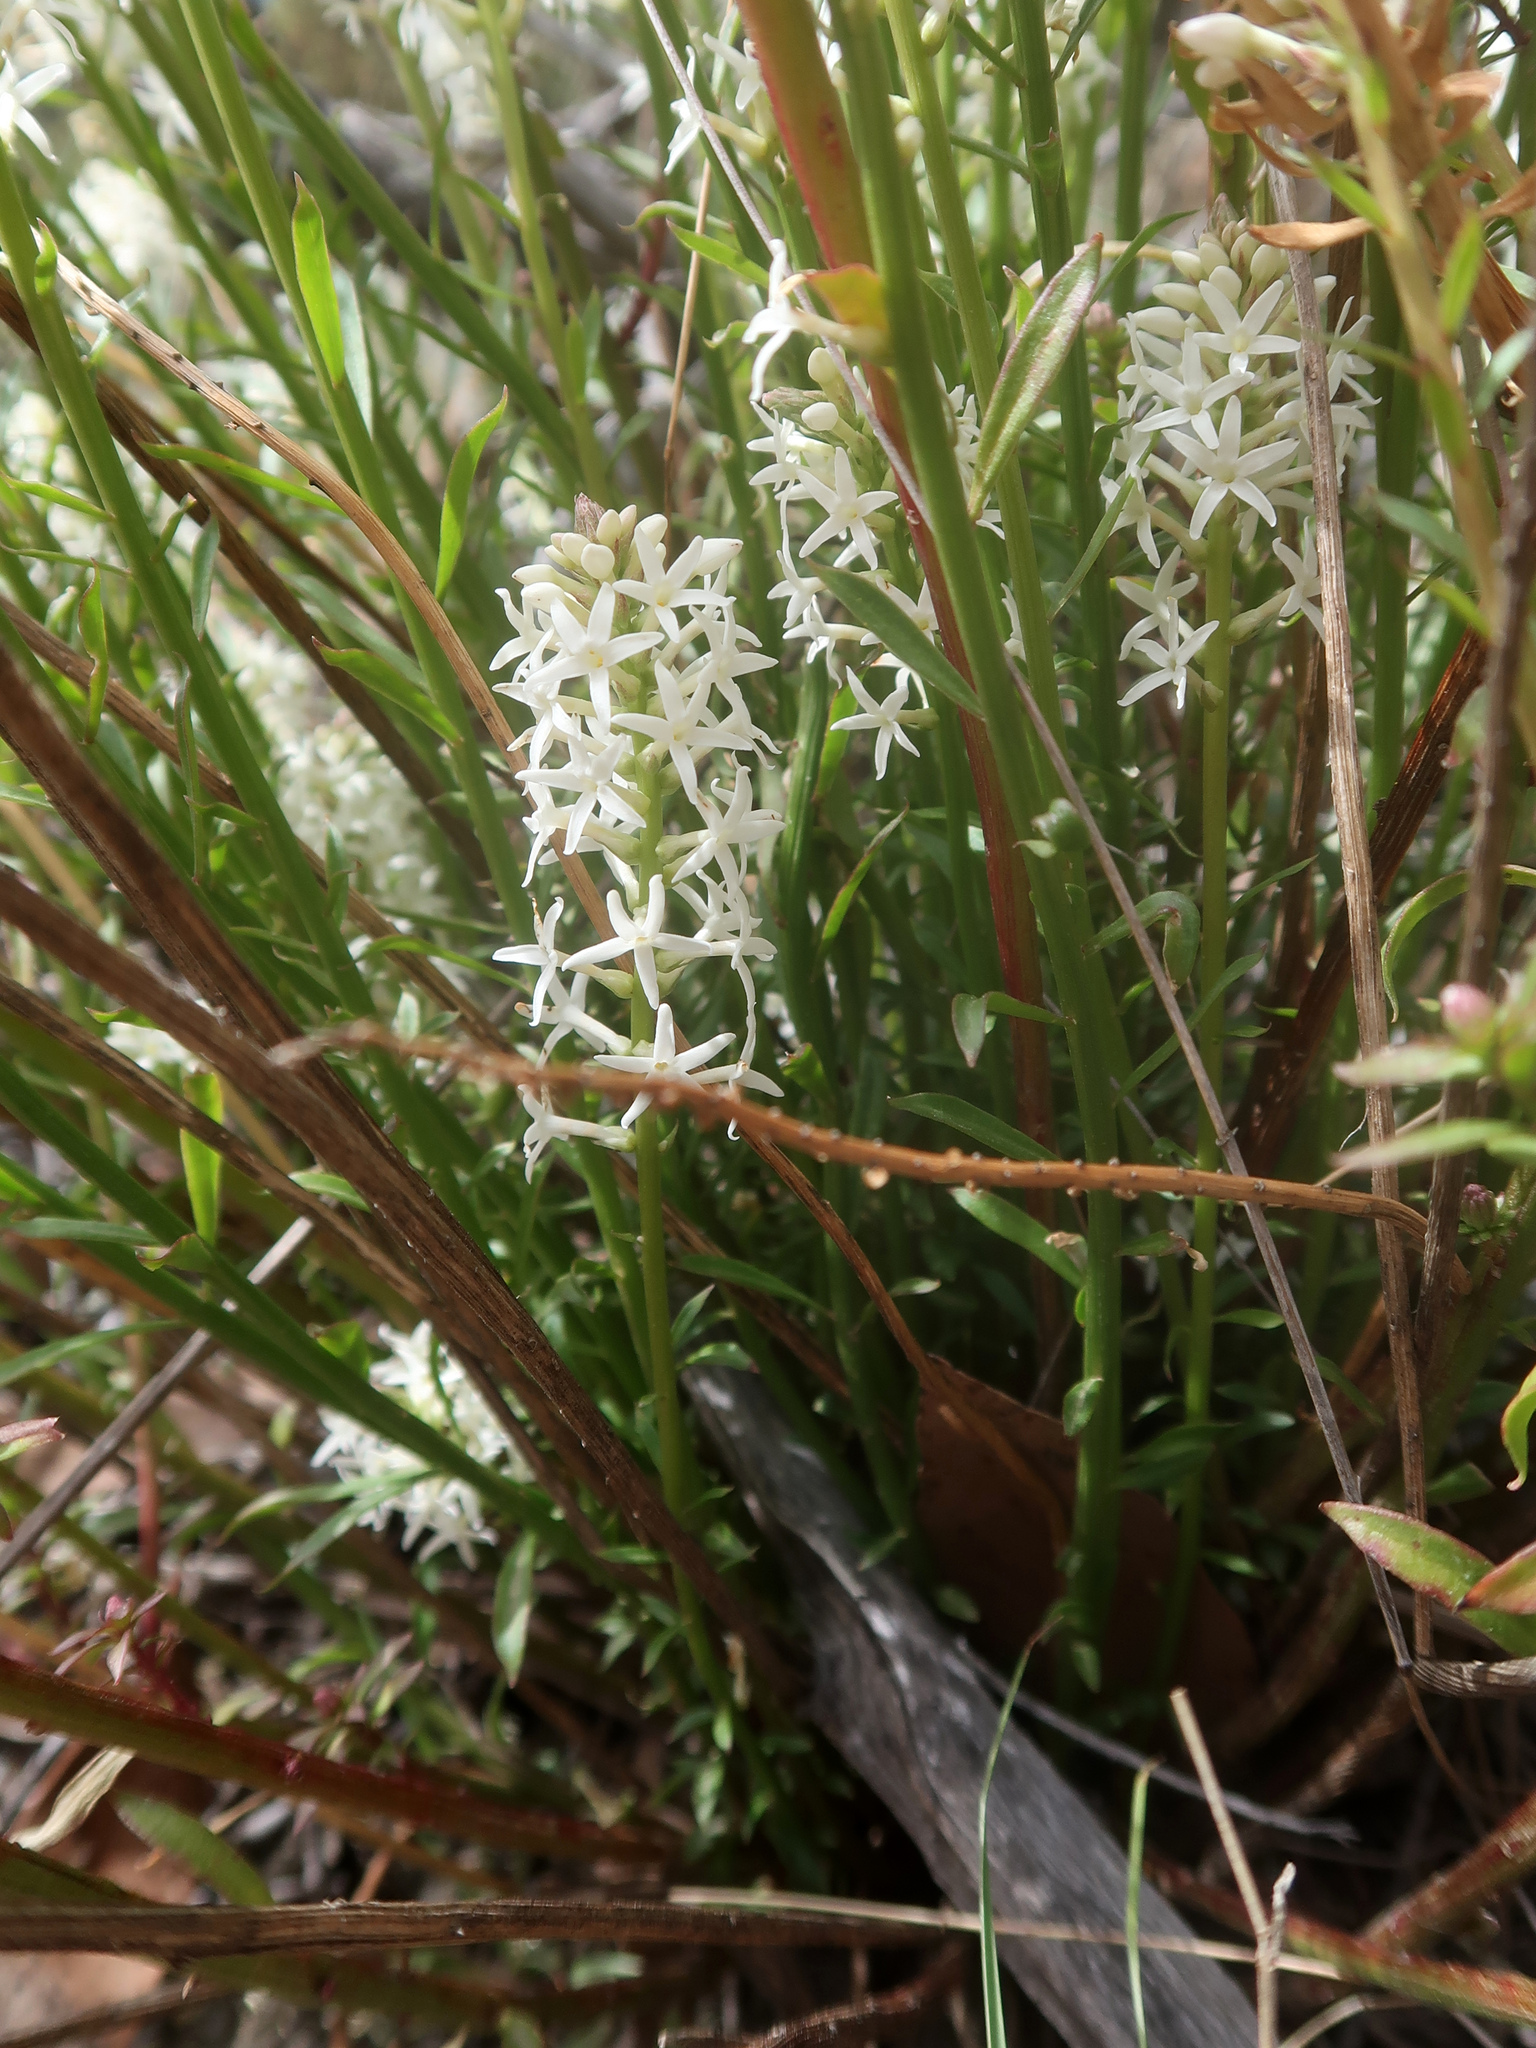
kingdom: Plantae
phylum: Tracheophyta
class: Magnoliopsida
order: Celastrales
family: Celastraceae
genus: Stackhousia
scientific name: Stackhousia monogyna
